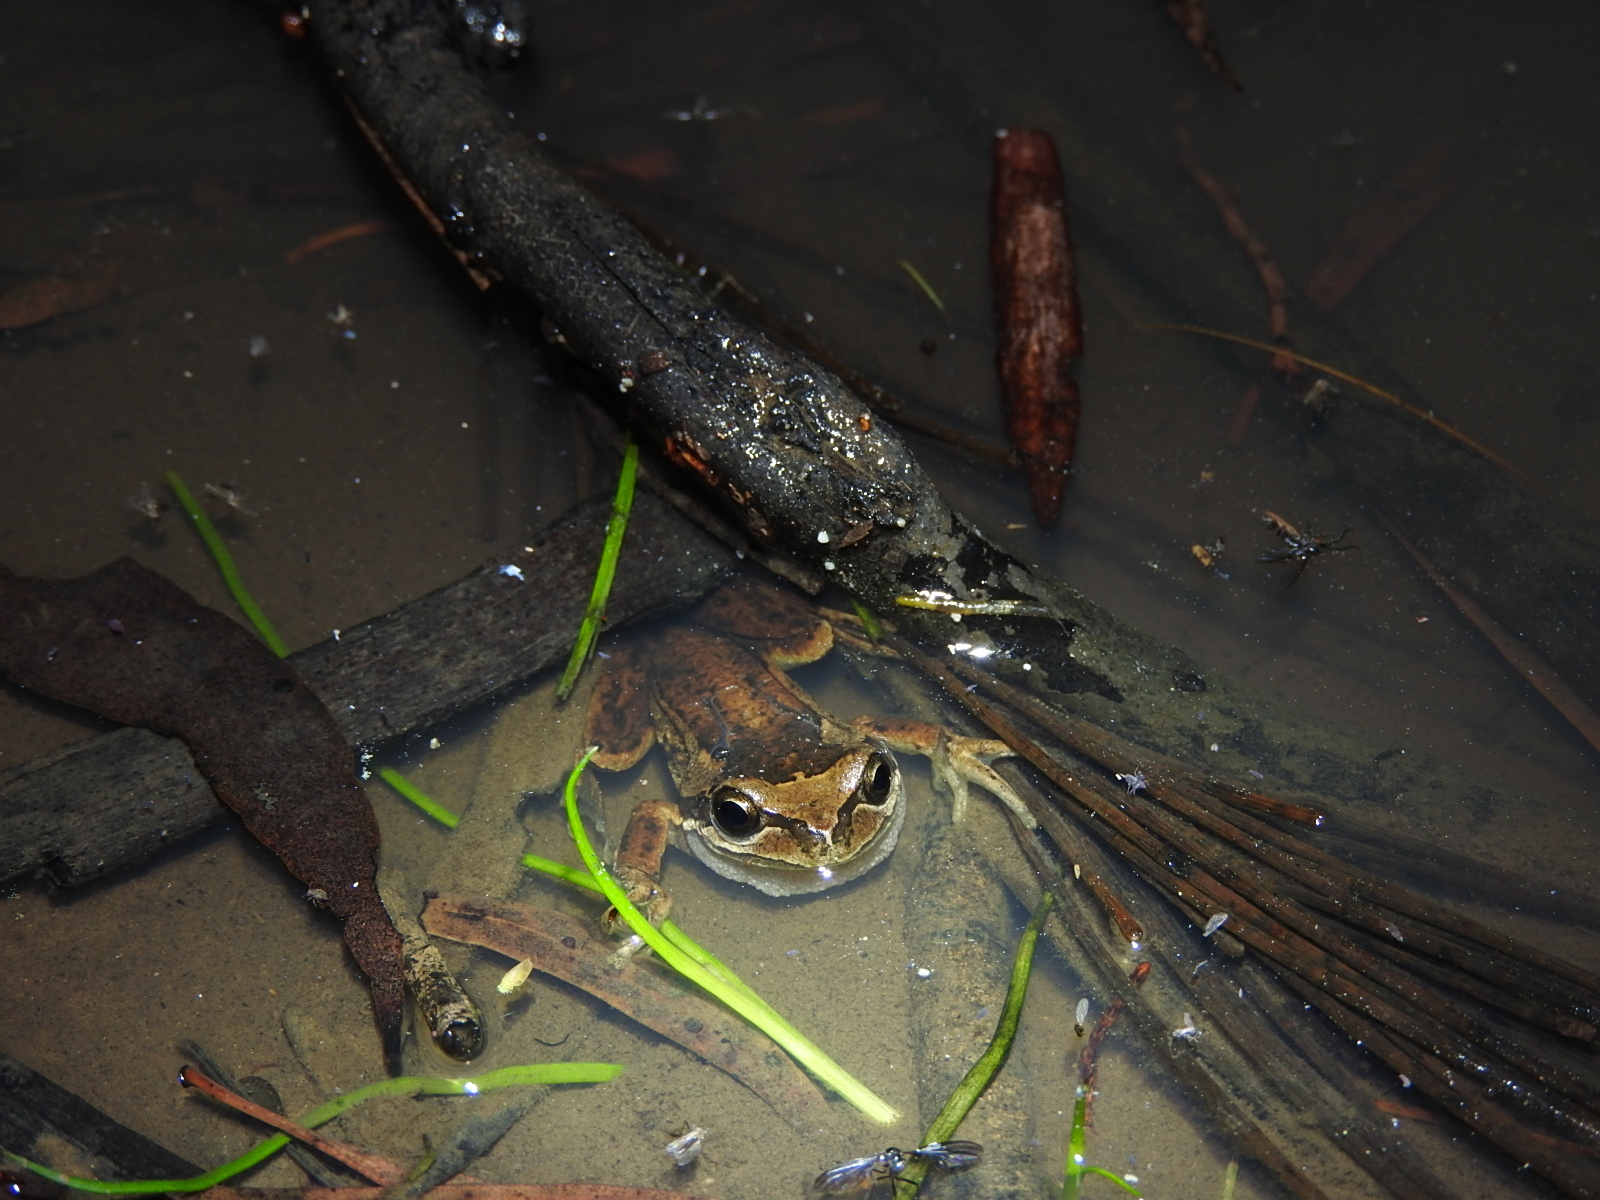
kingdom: Animalia
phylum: Chordata
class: Amphibia
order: Anura
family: Pelodryadidae
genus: Litoria
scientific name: Litoria ewingii
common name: Southern brown tree frog
